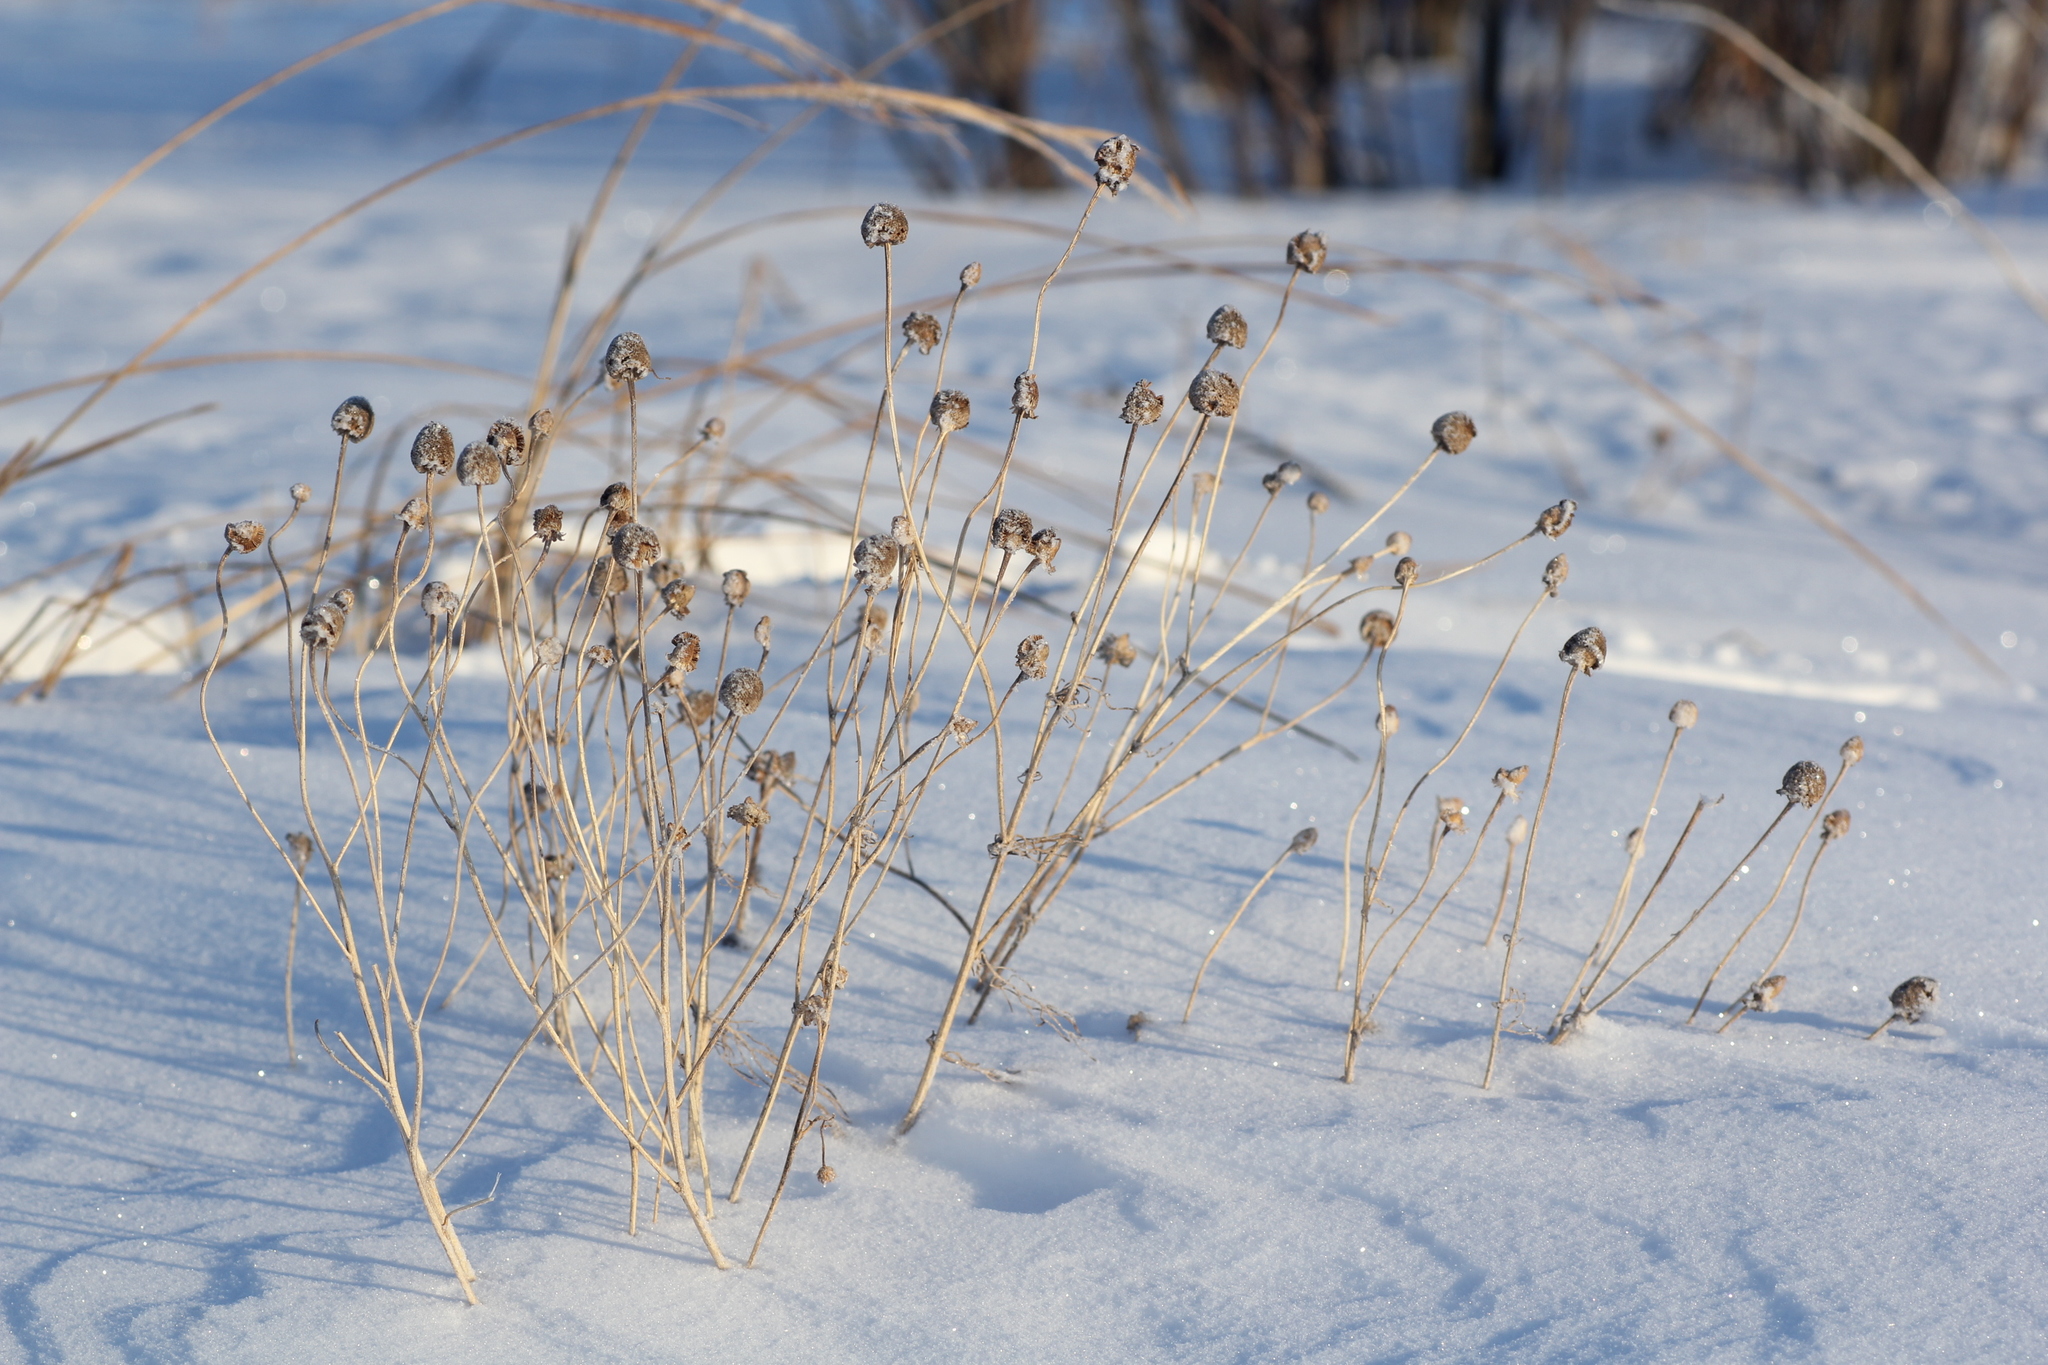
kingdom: Plantae
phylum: Tracheophyta
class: Magnoliopsida
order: Asterales
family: Asteraceae
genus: Matricaria
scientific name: Matricaria chamomilla
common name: Scented mayweed
